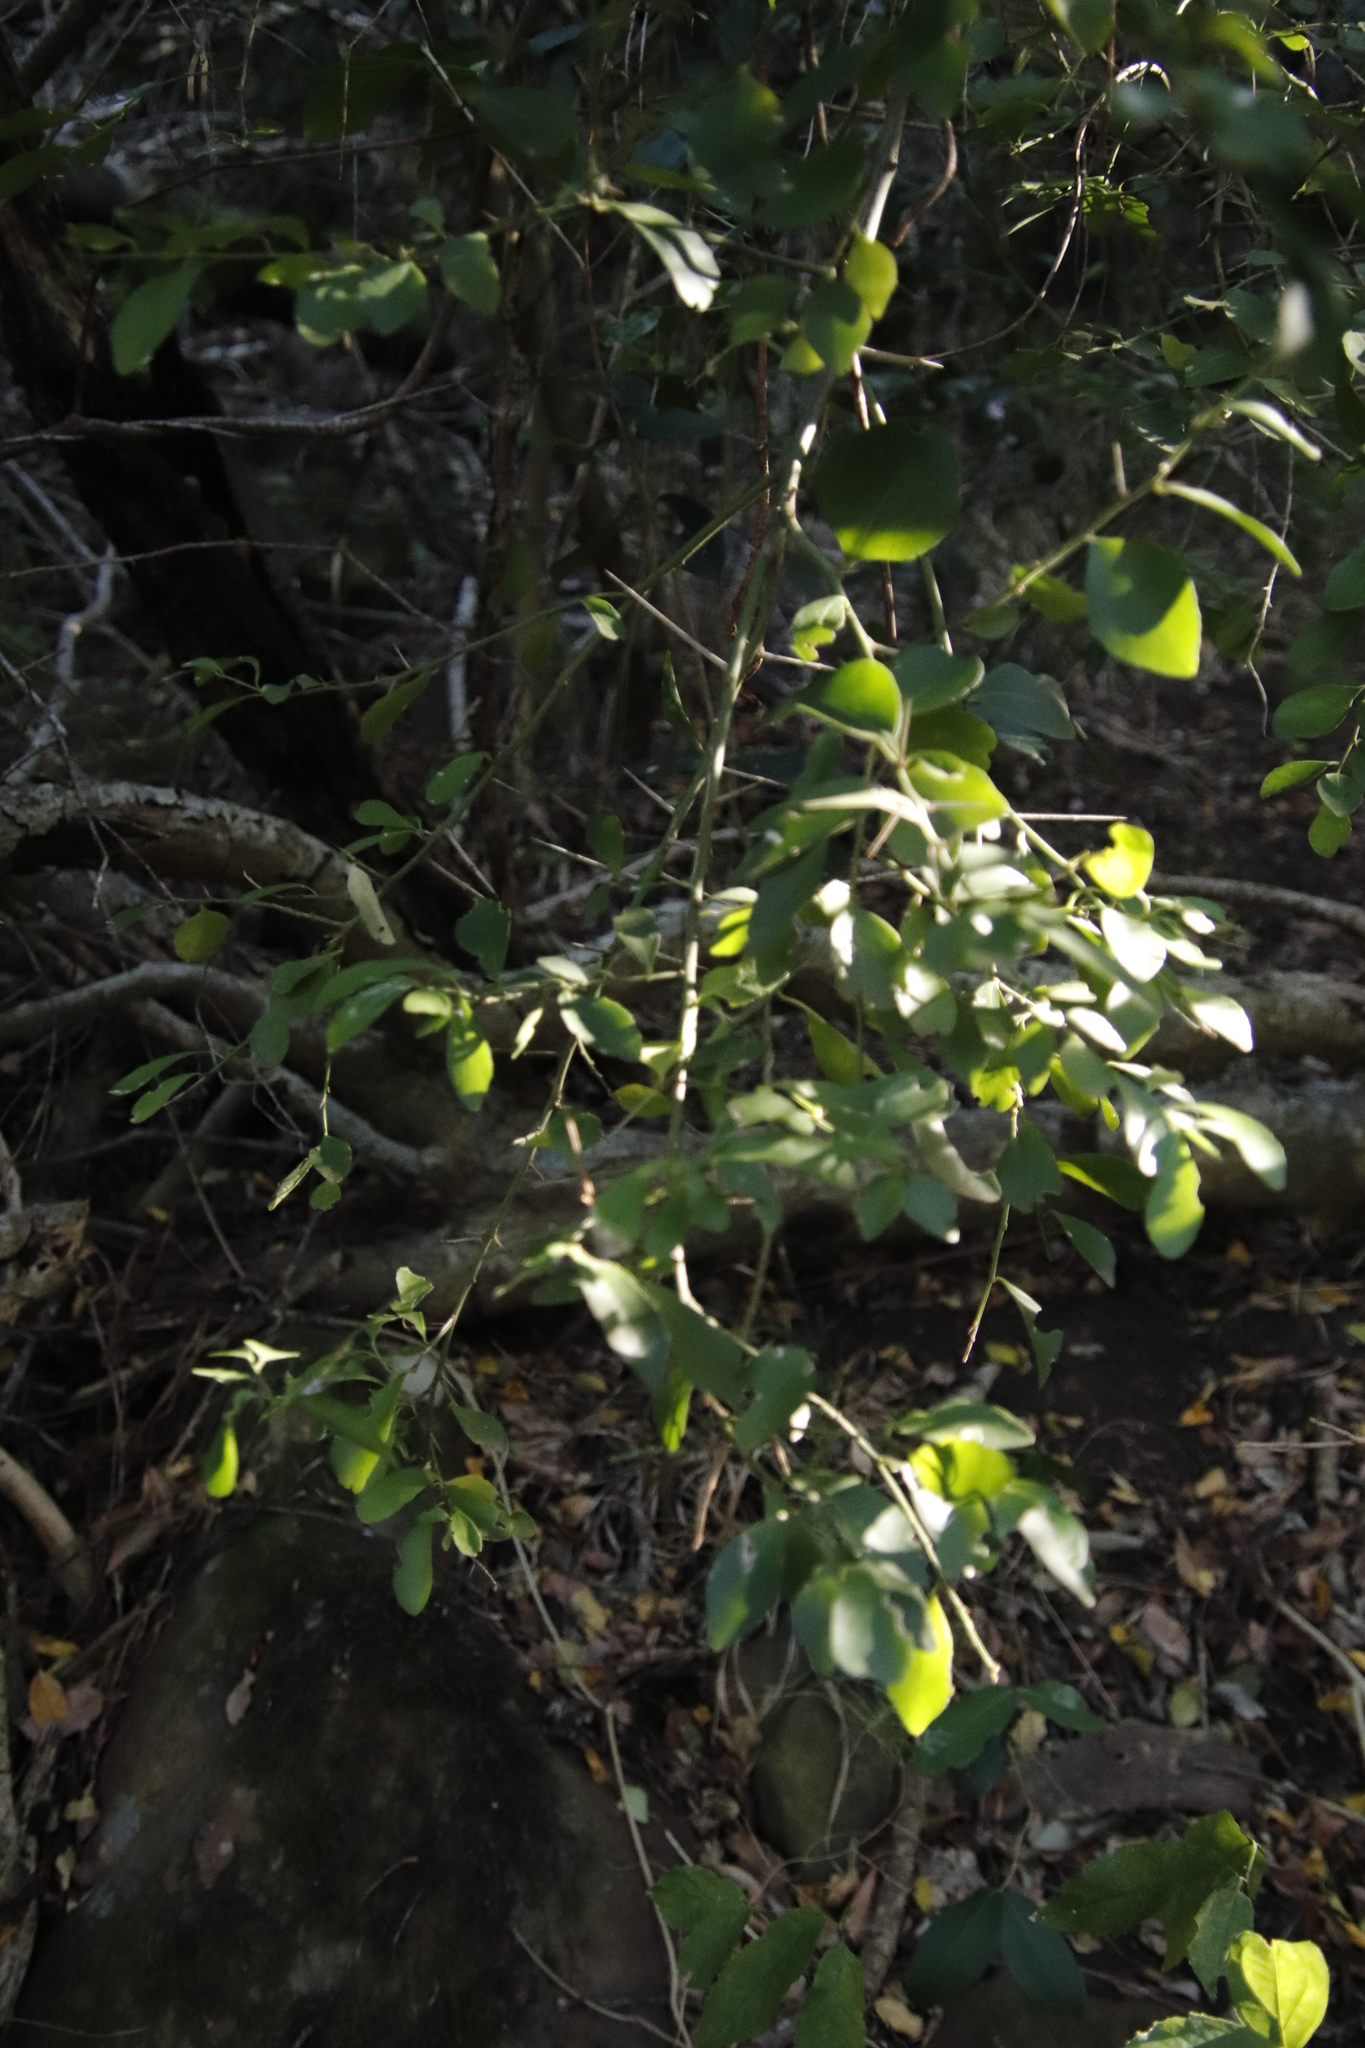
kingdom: Plantae
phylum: Tracheophyta
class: Magnoliopsida
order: Celastrales
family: Celastraceae
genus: Gymnosporia
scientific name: Gymnosporia buxifolia
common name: Common spike-thorn
